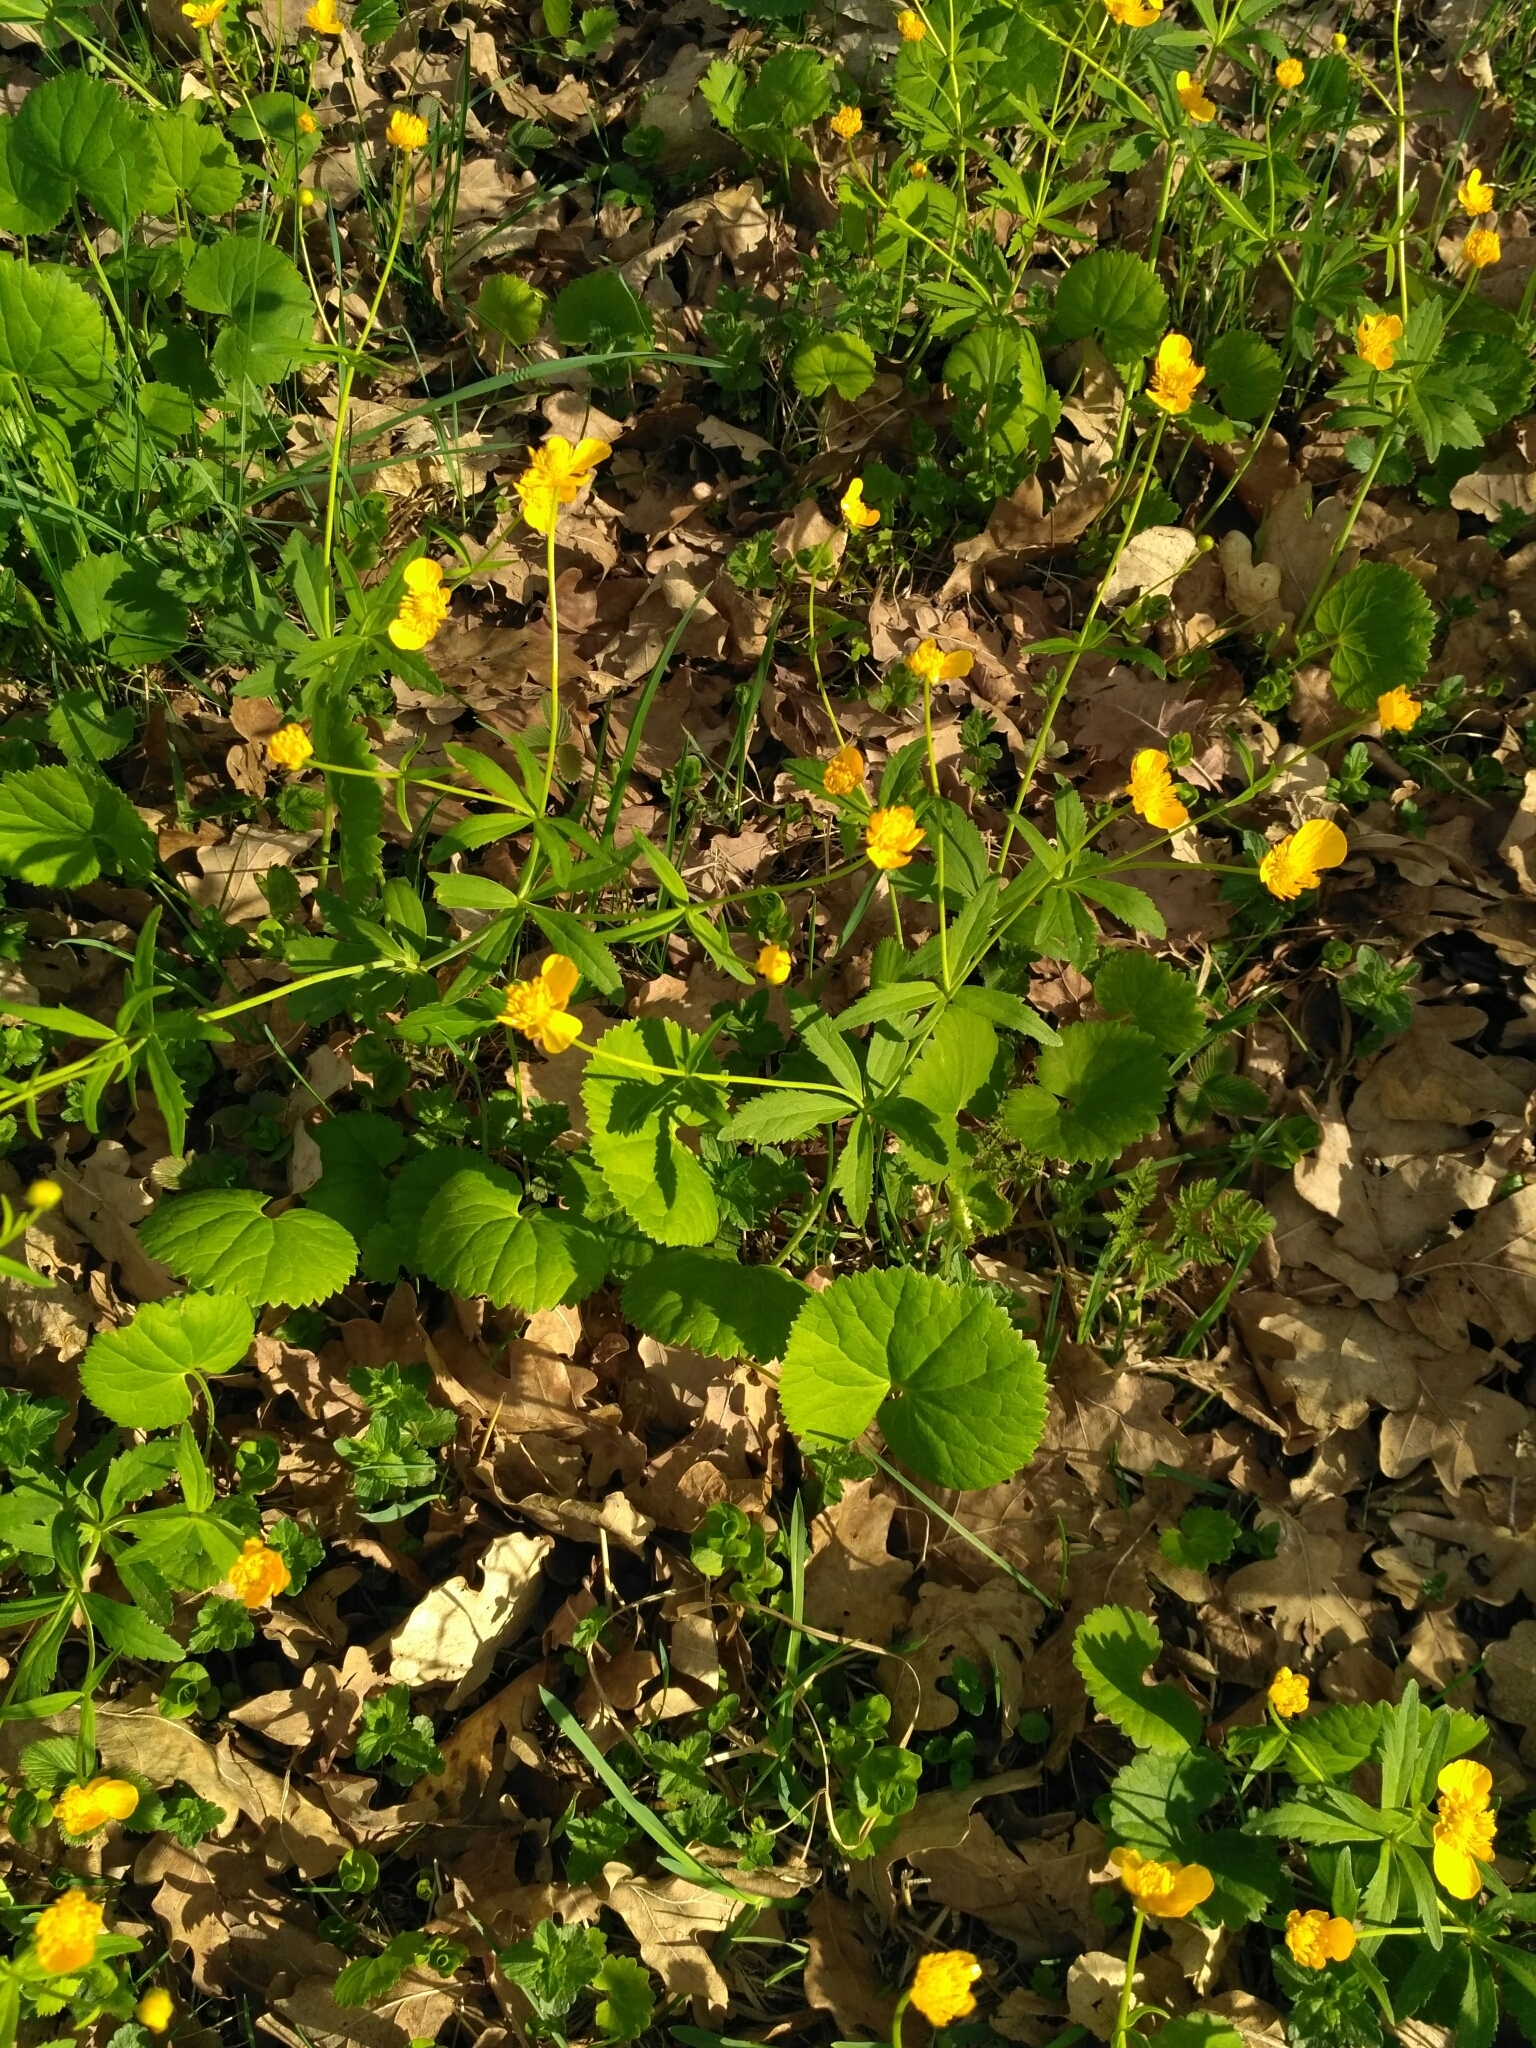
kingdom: Plantae
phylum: Tracheophyta
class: Magnoliopsida
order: Ranunculales
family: Ranunculaceae
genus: Ranunculus
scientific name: Ranunculus cassubicus
